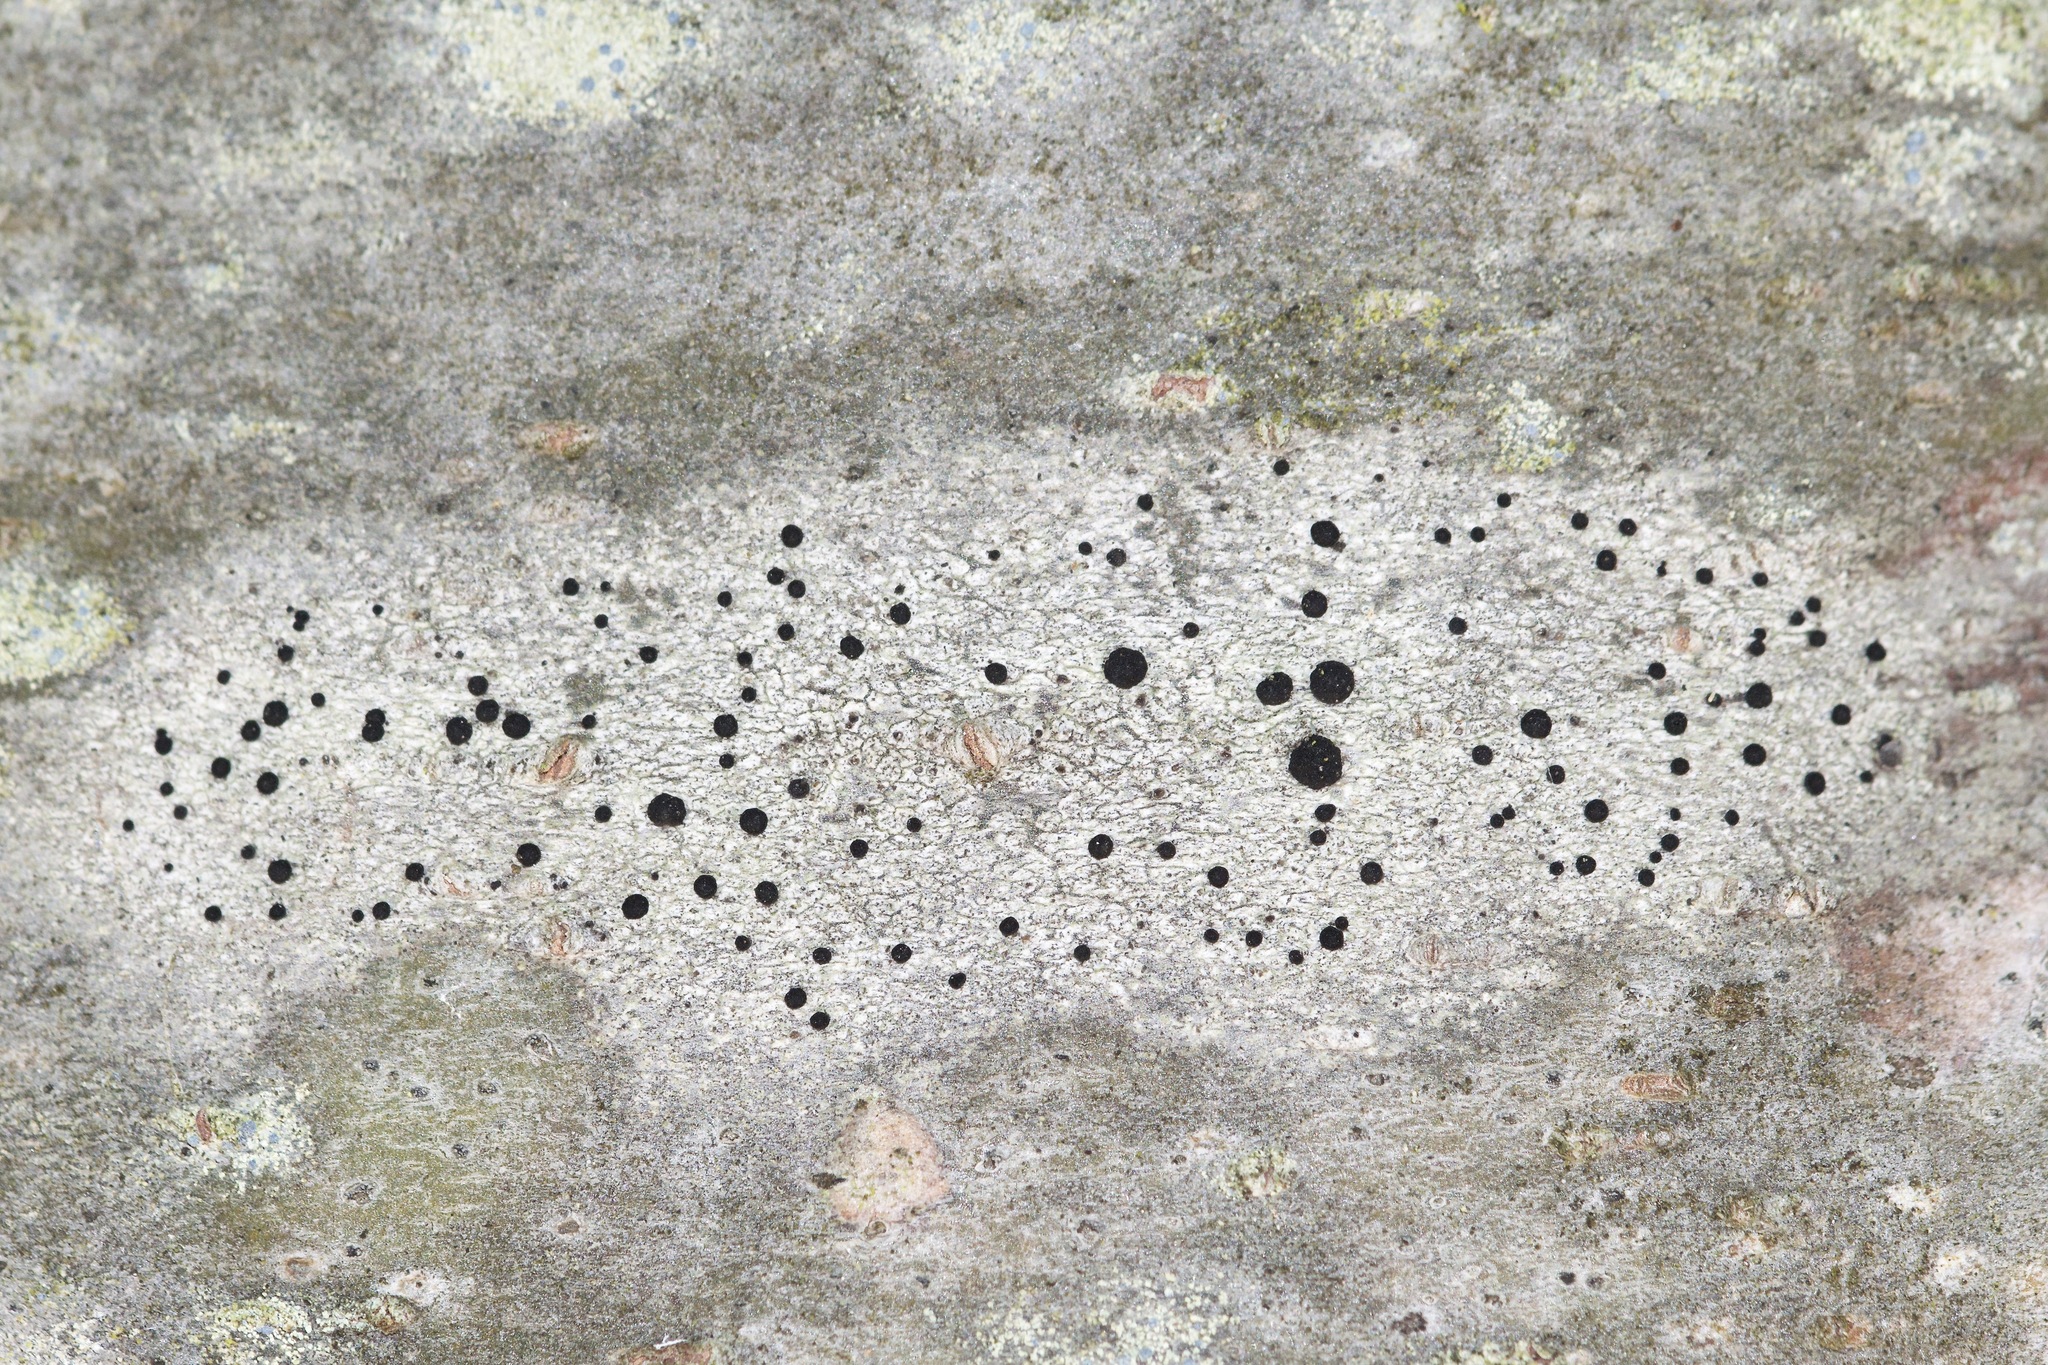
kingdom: Fungi
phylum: Ascomycota
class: Lecanoromycetes
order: Caliciales
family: Caliciaceae
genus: Buellia
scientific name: Buellia dialyta
